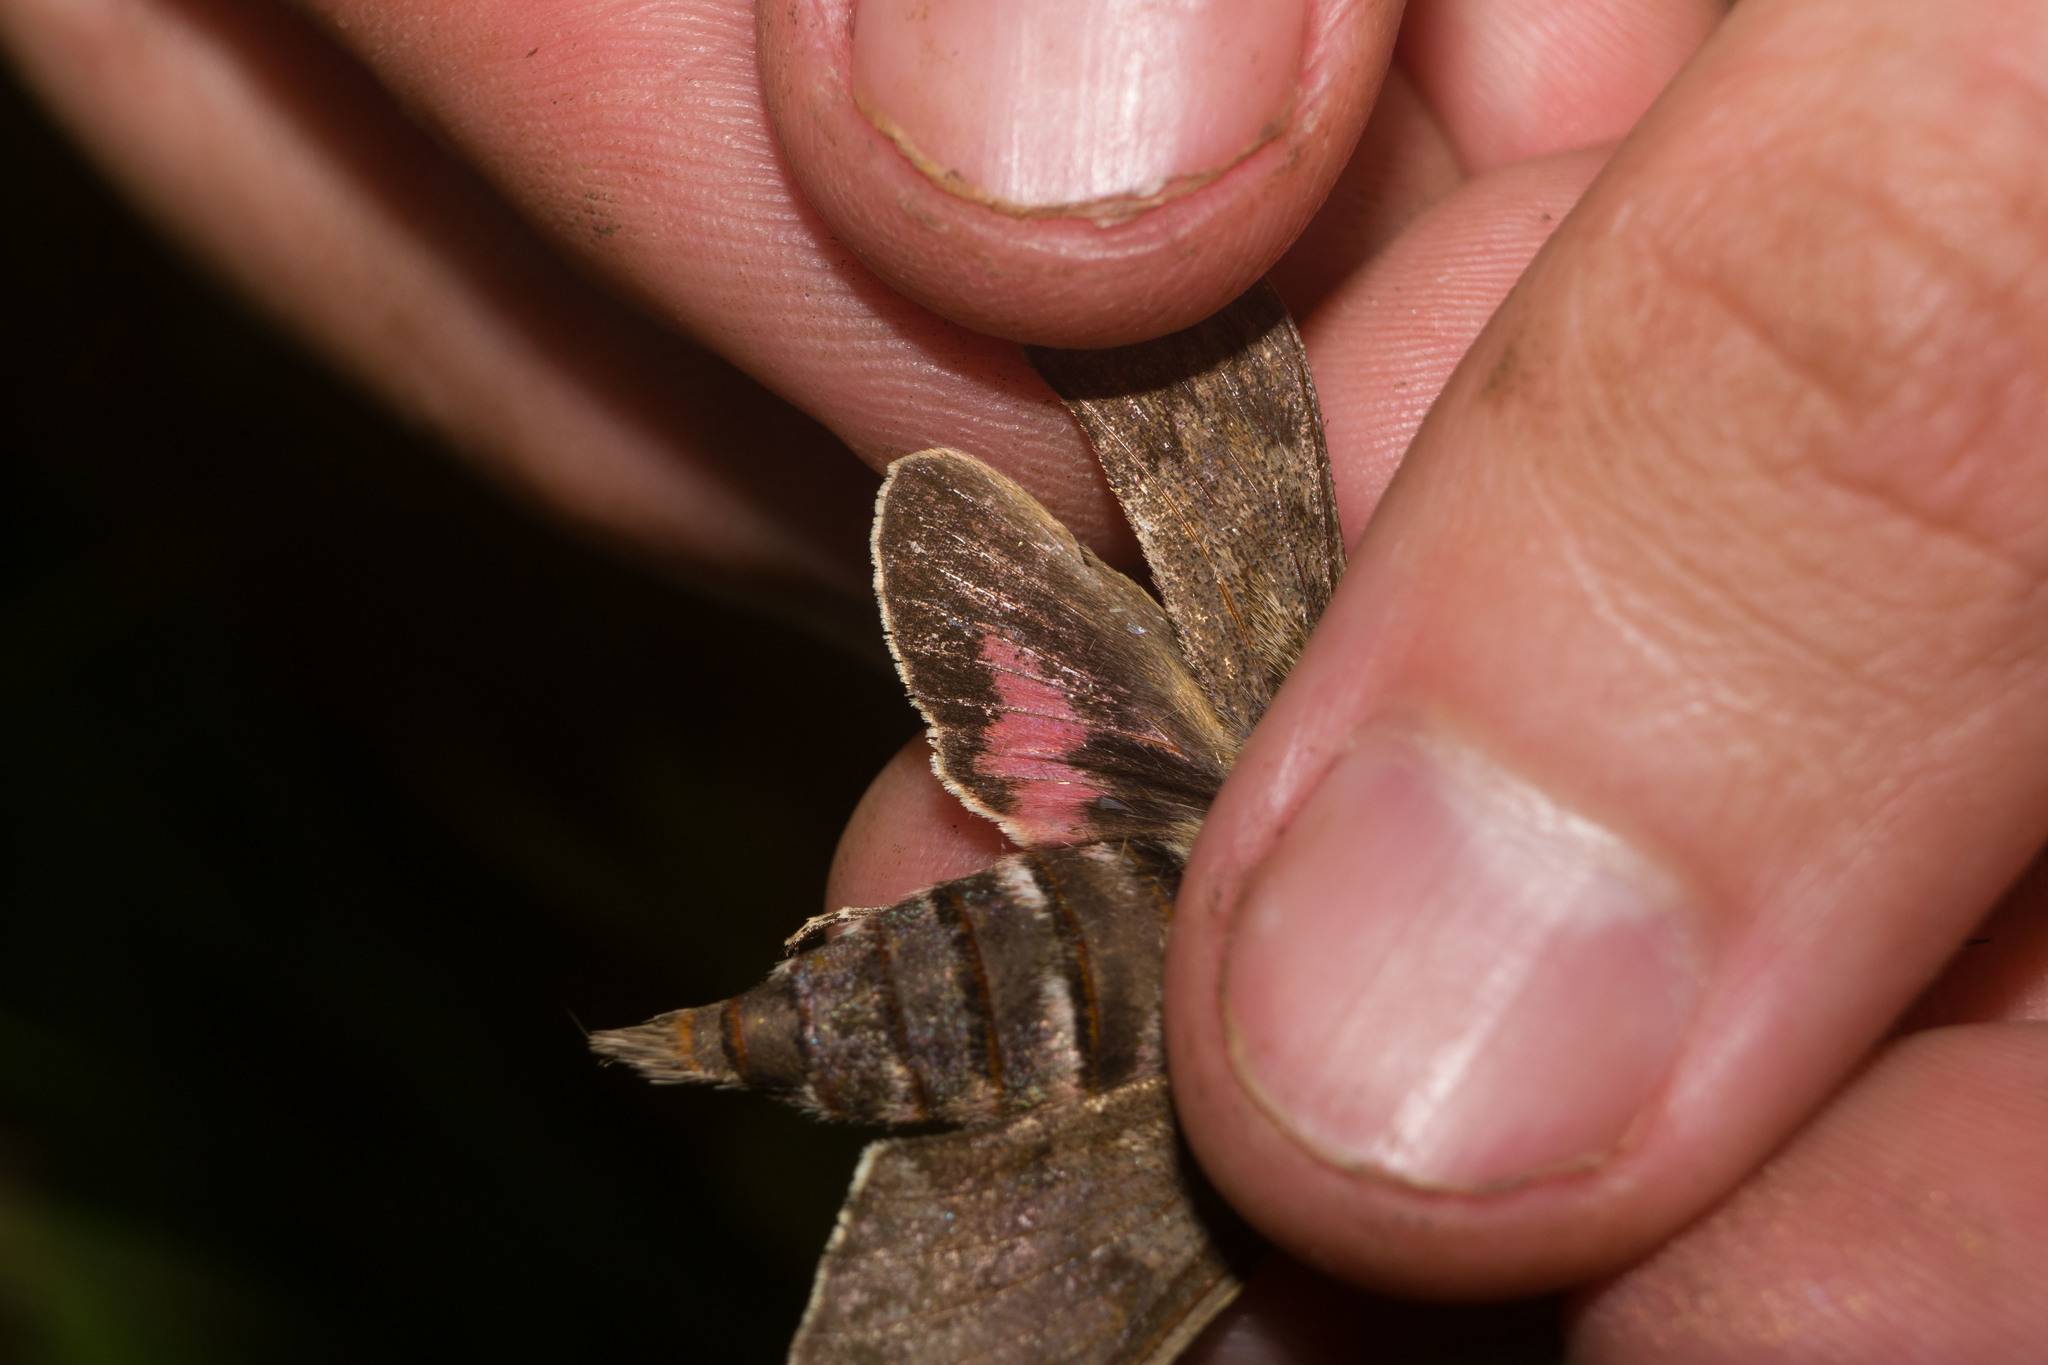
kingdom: Animalia
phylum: Arthropoda
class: Insecta
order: Lepidoptera
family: Sphingidae
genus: Hyles
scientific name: Hyles perkinsi
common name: Perkins' sphinx
